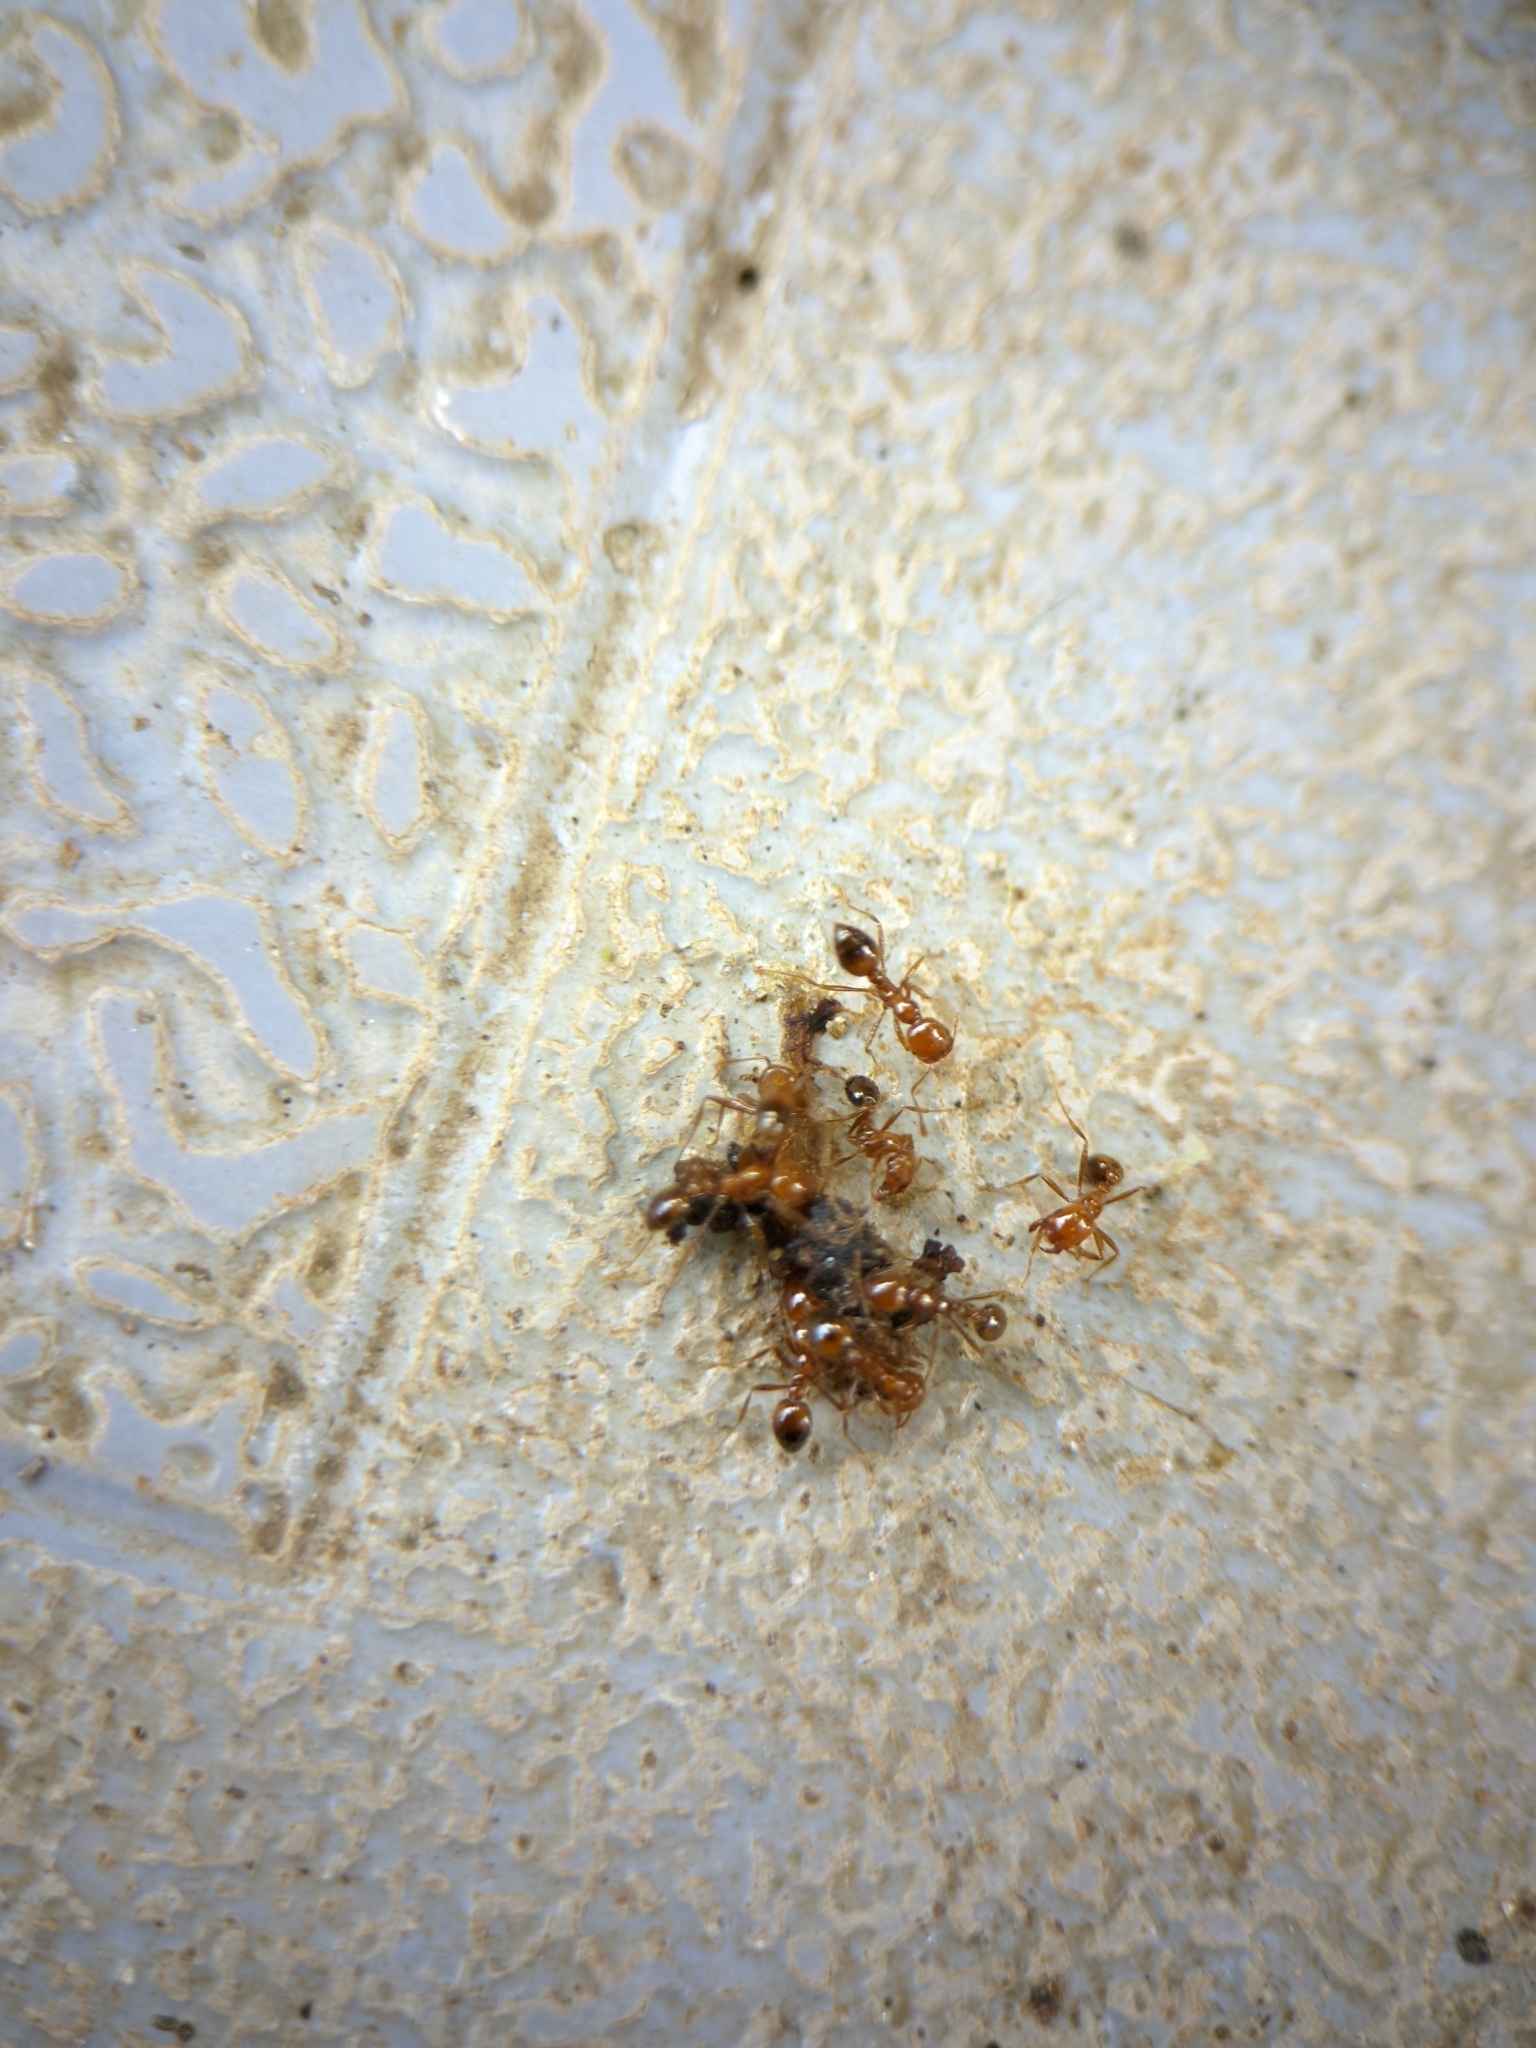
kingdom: Animalia
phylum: Arthropoda
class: Insecta
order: Hymenoptera
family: Formicidae
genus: Solenopsis
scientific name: Solenopsis geminata
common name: Tropical fire ant
